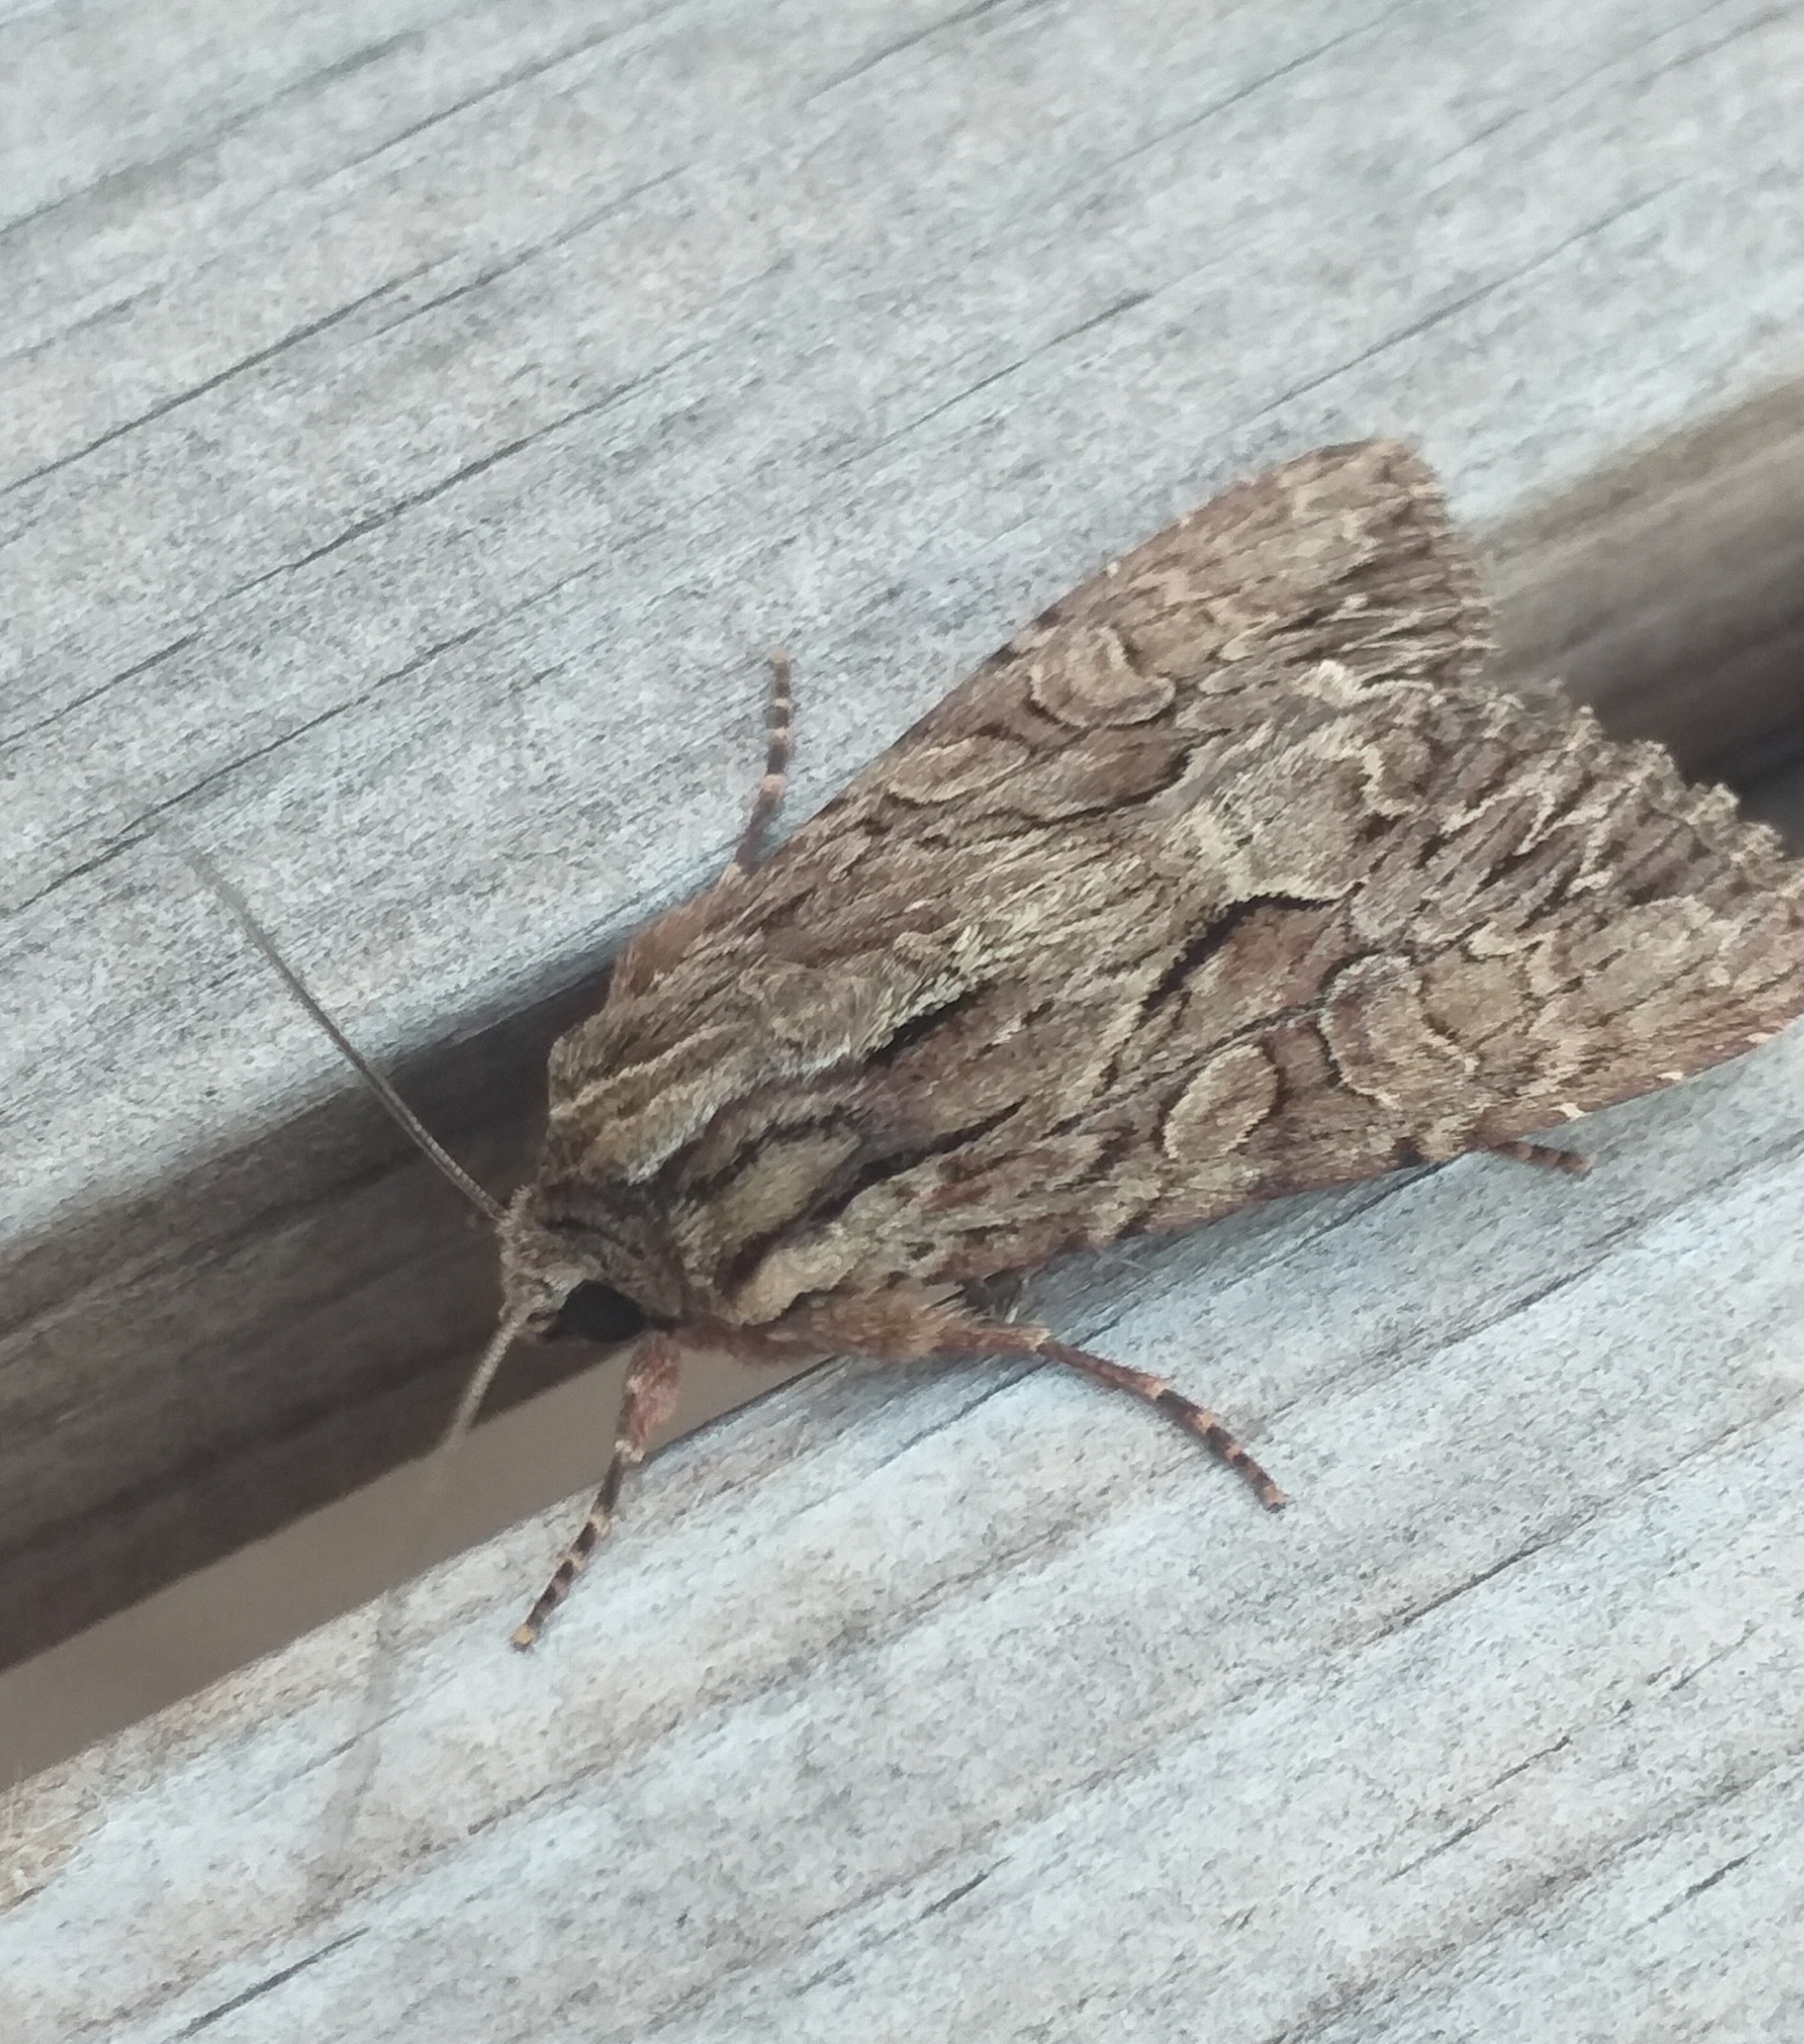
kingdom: Animalia
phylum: Arthropoda
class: Insecta
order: Lepidoptera
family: Noctuidae
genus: Apamea
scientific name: Apamea monoglypha
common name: Dark arches
